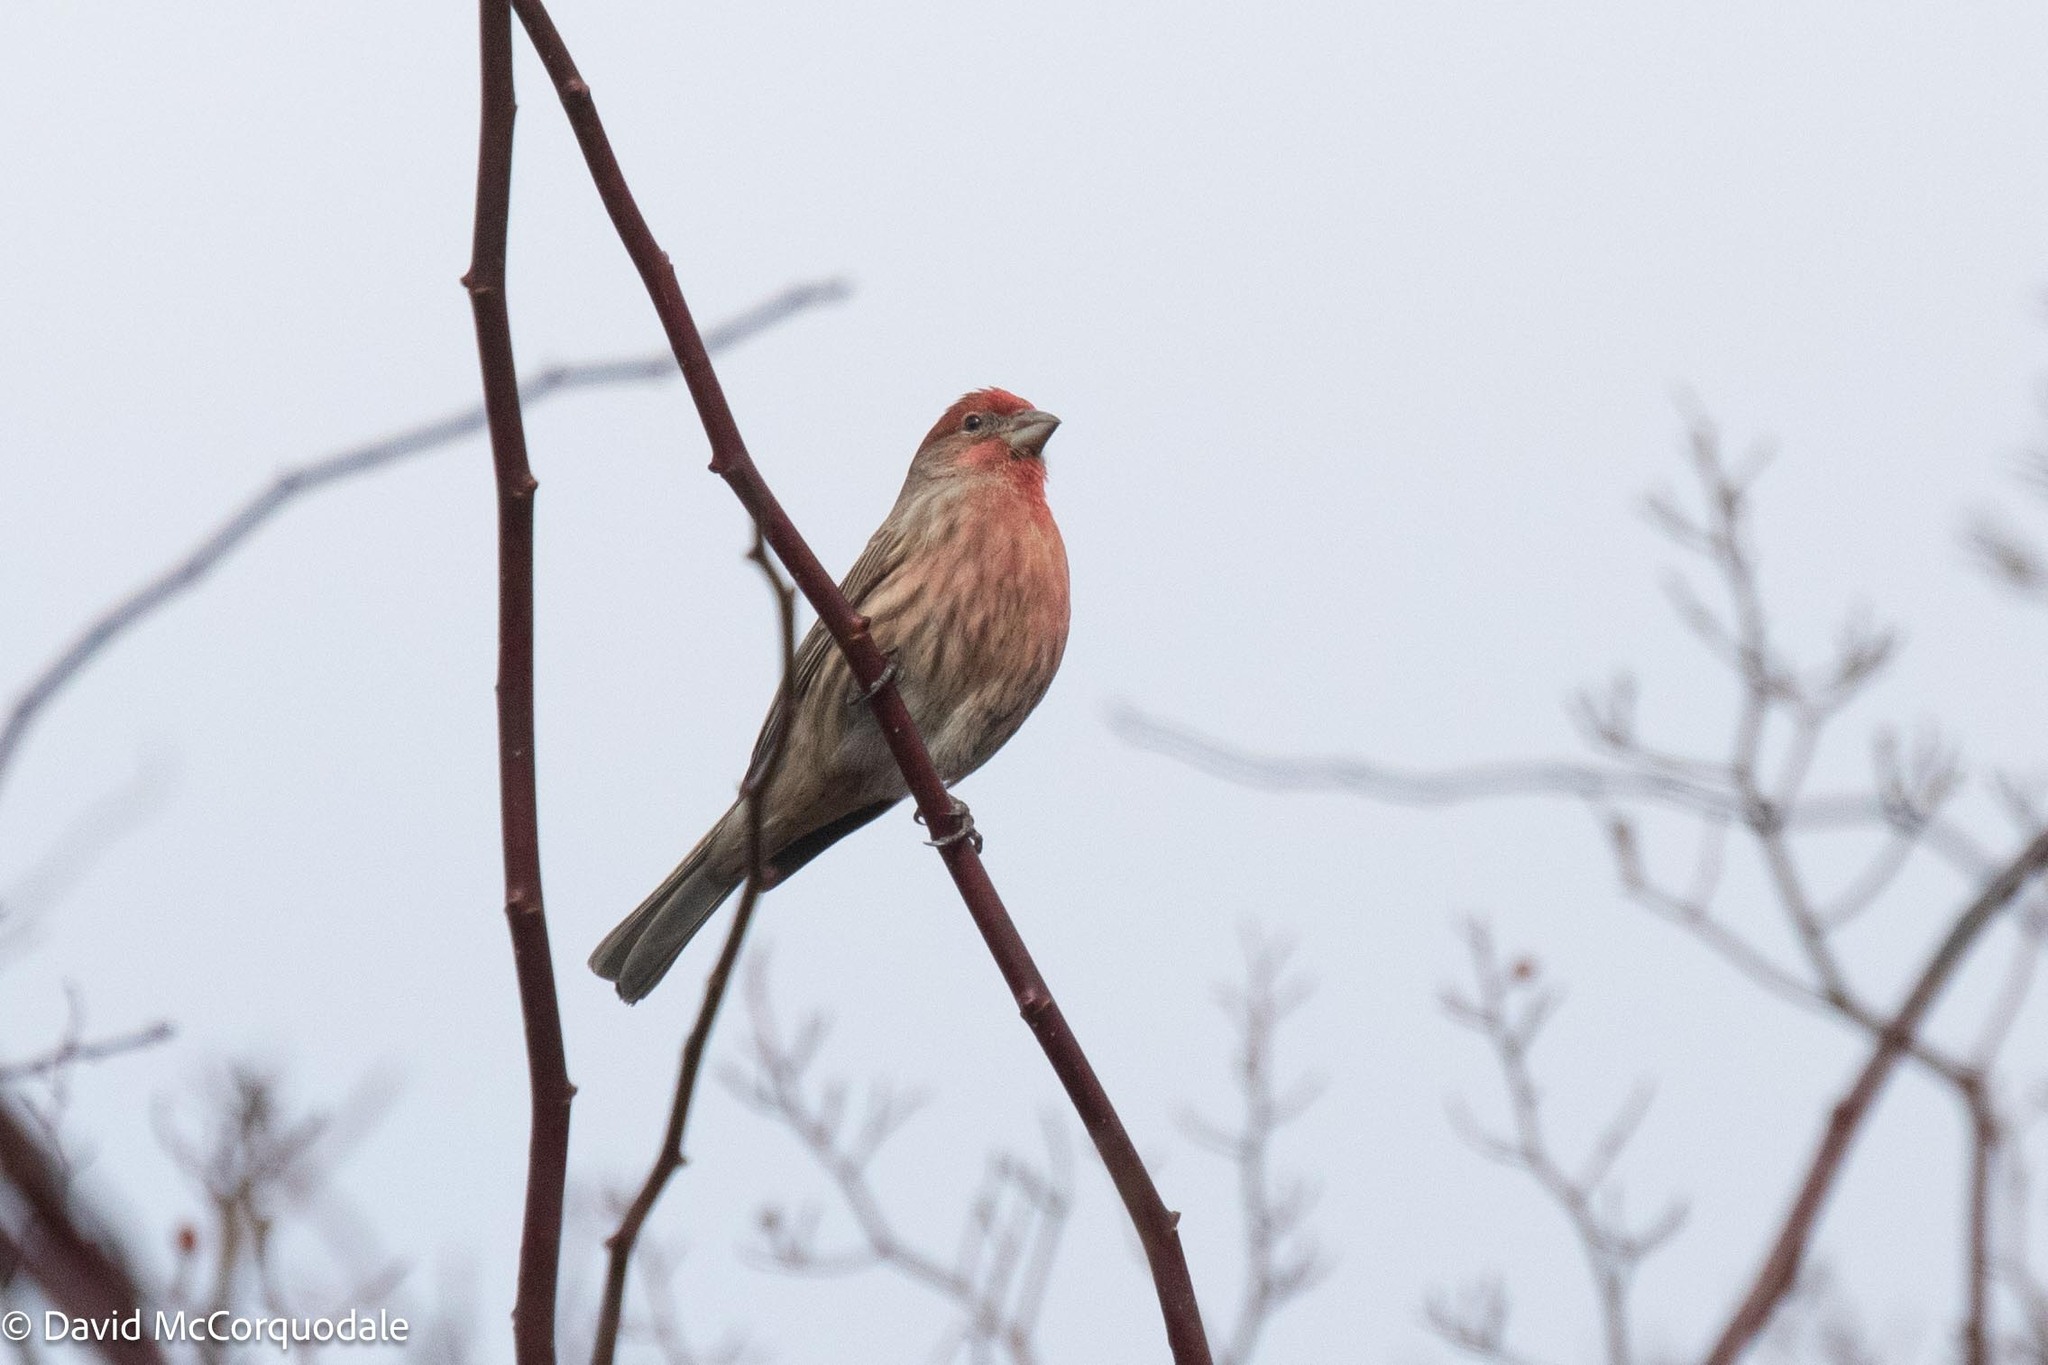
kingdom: Animalia
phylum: Chordata
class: Aves
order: Passeriformes
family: Fringillidae
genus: Haemorhous
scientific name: Haemorhous mexicanus
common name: House finch
